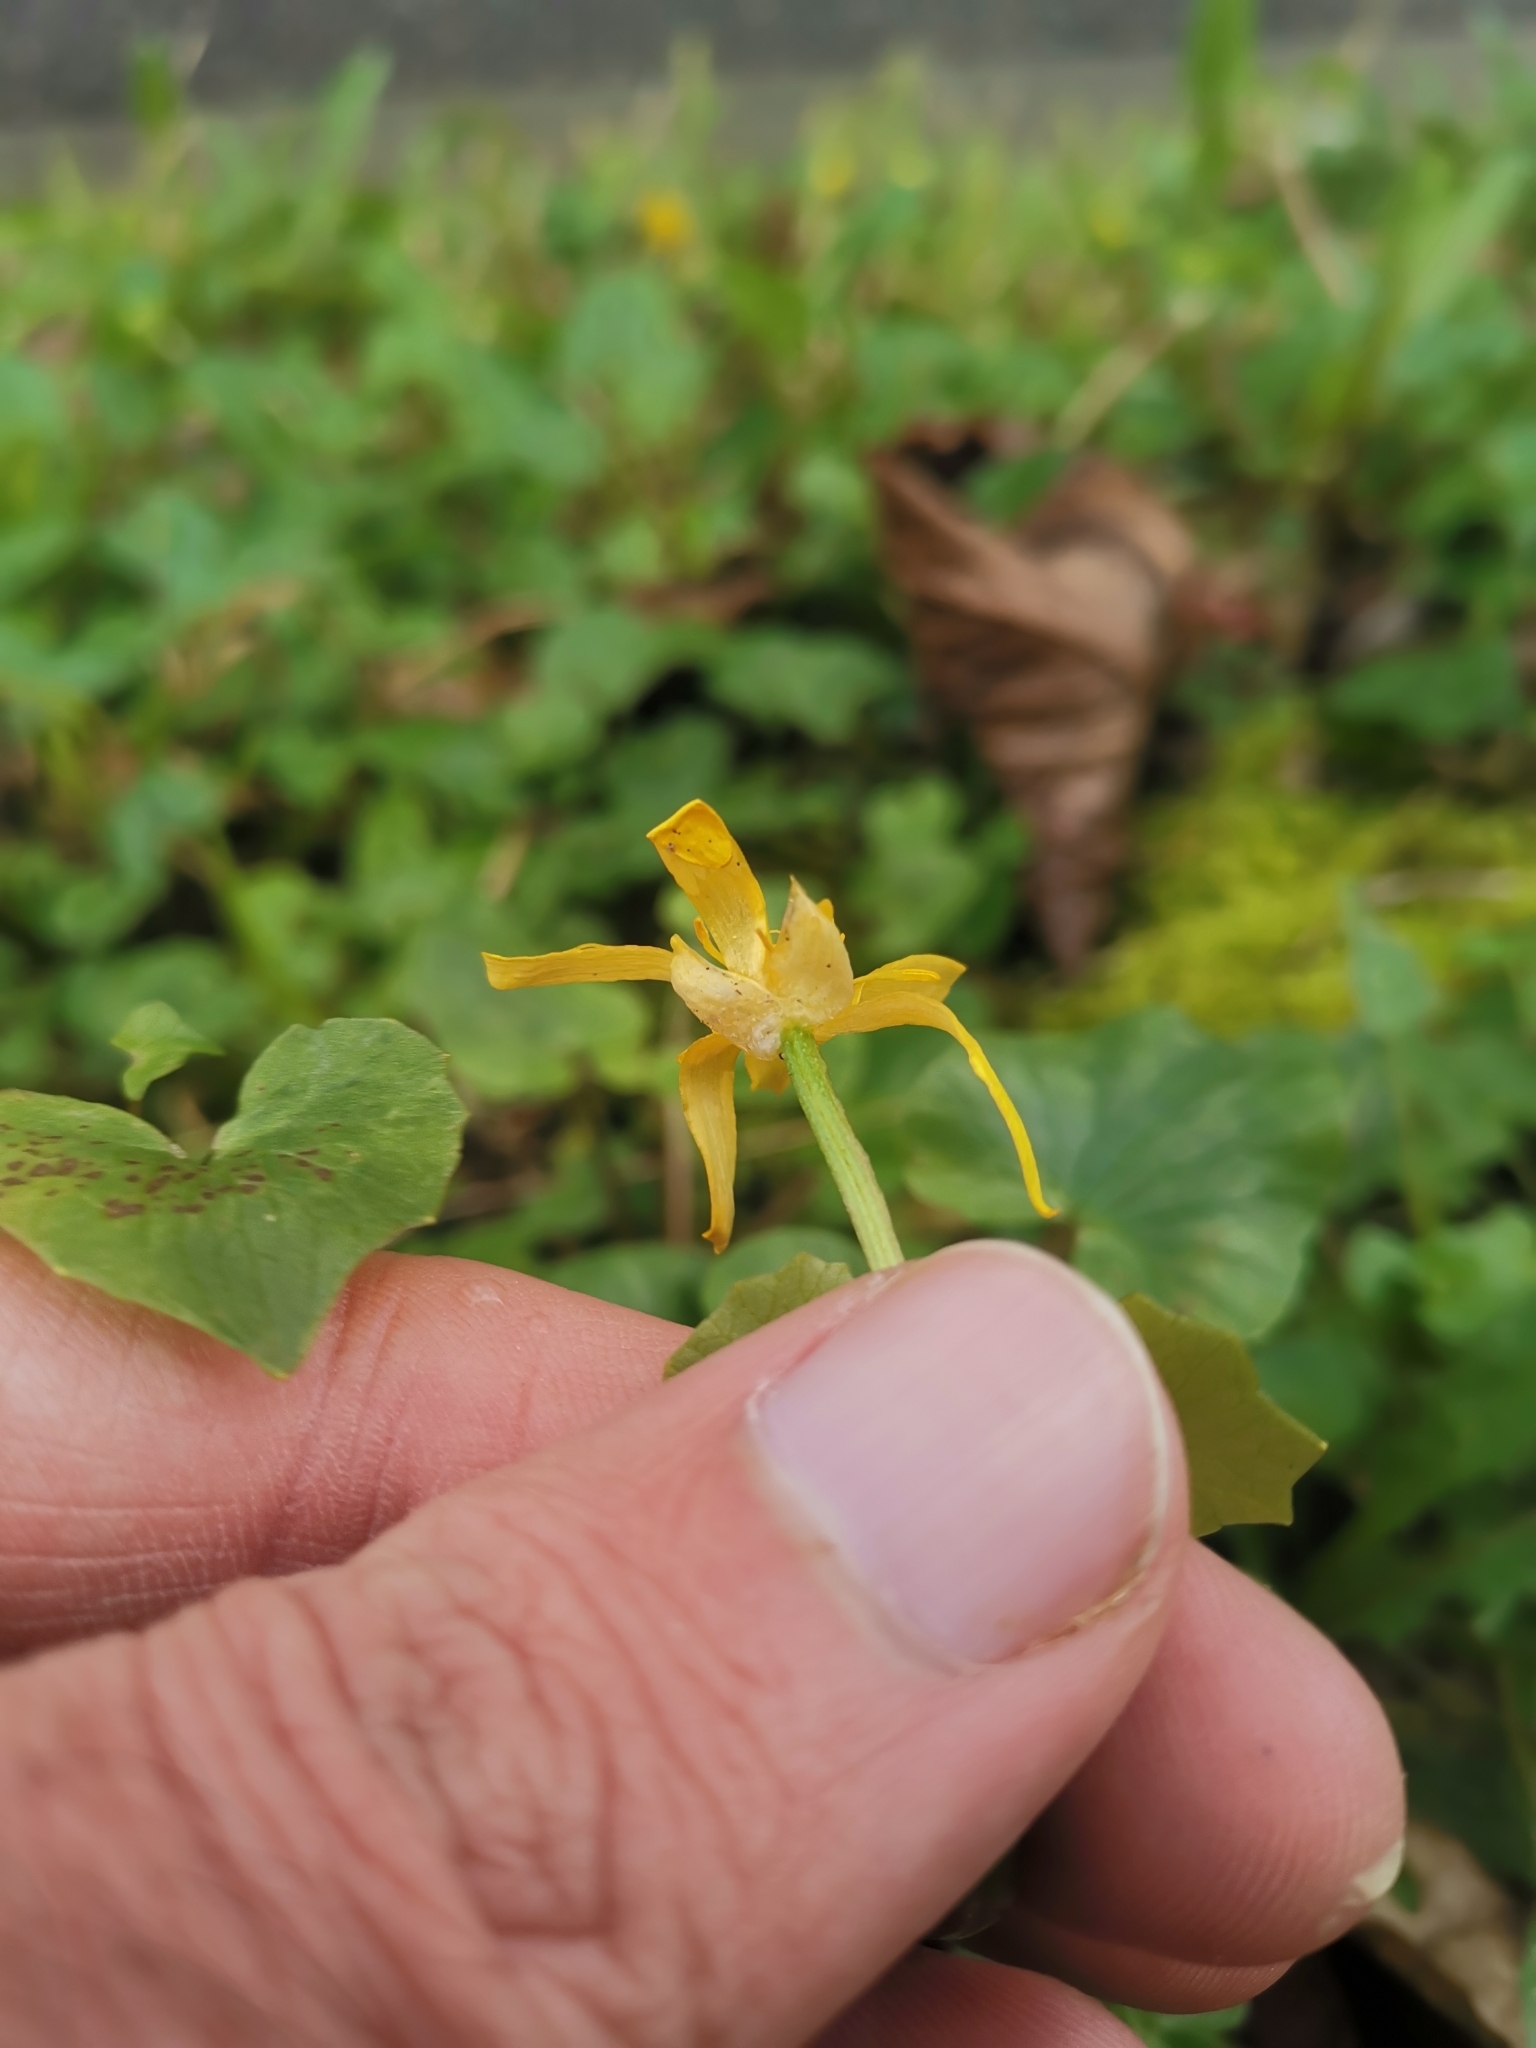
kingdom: Plantae
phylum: Tracheophyta
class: Magnoliopsida
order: Ranunculales
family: Ranunculaceae
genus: Ficaria
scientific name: Ficaria verna
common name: Lesser celandine
